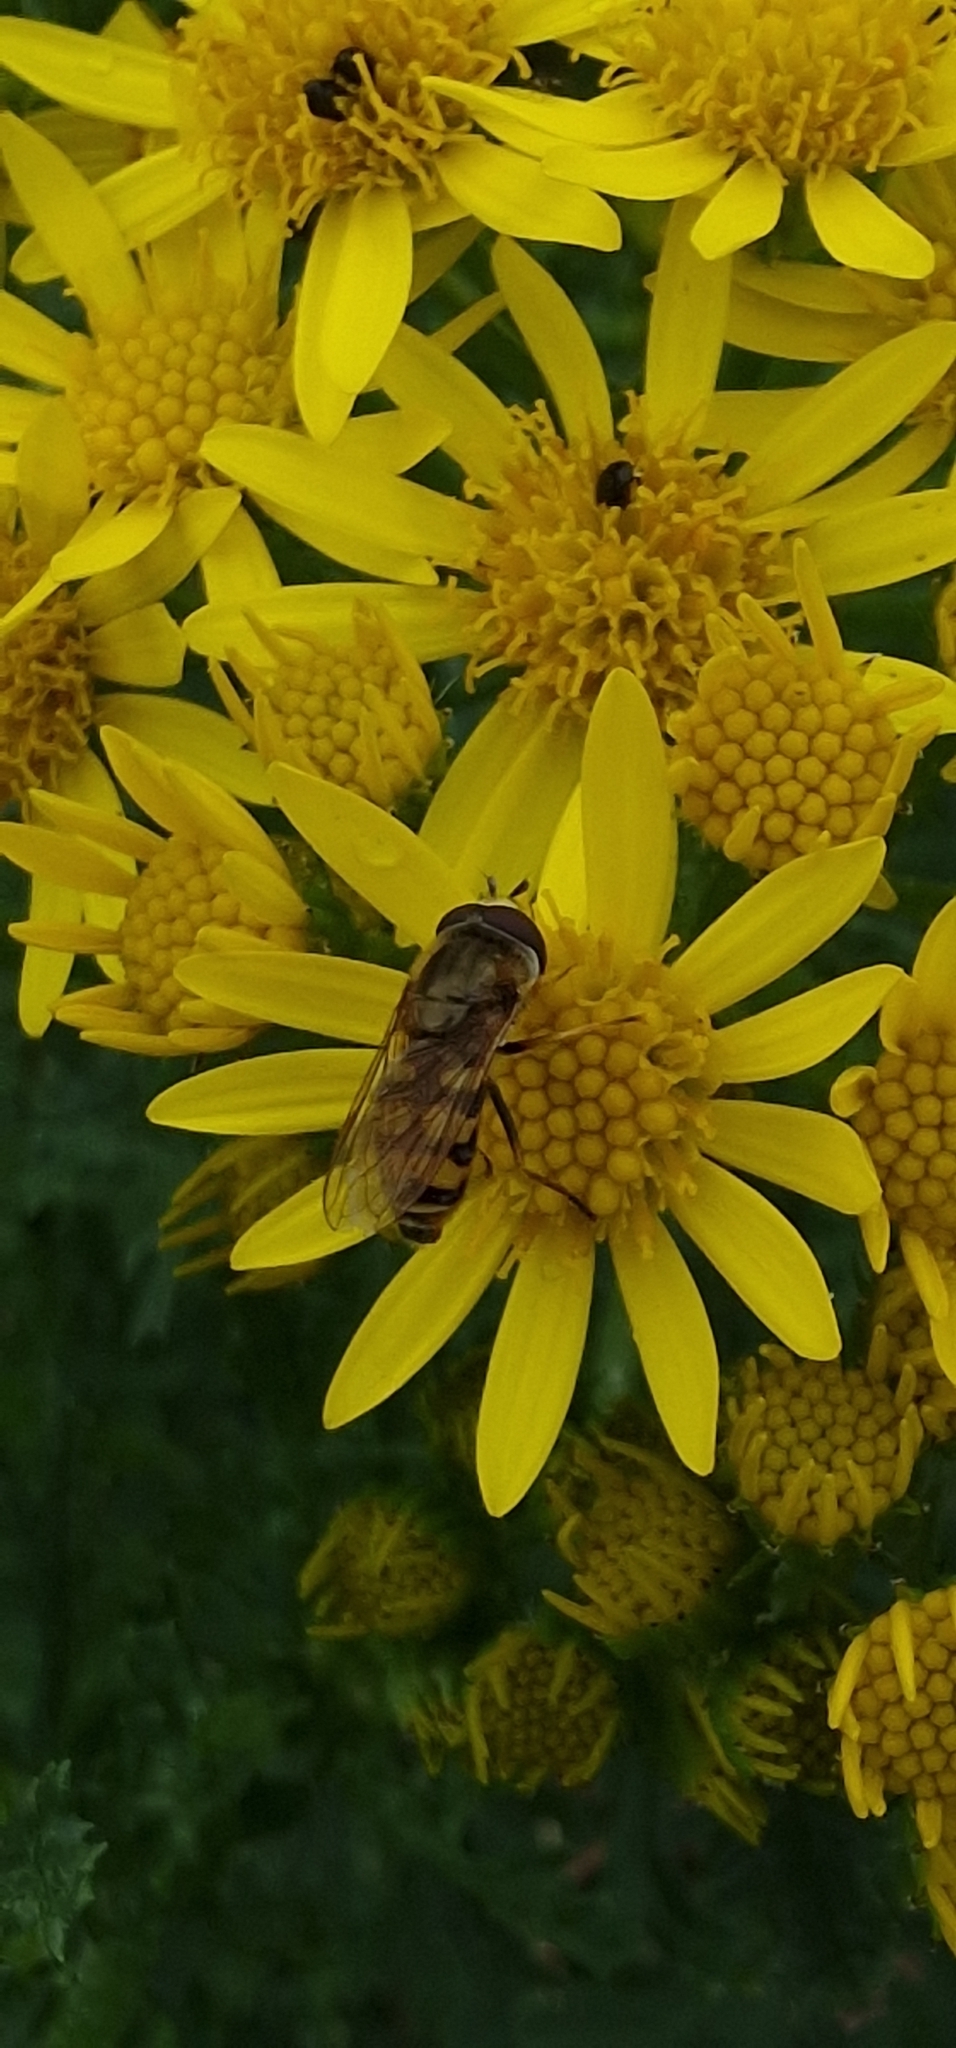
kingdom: Animalia
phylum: Arthropoda
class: Insecta
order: Diptera
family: Syrphidae
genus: Eupeodes
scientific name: Eupeodes corollae
